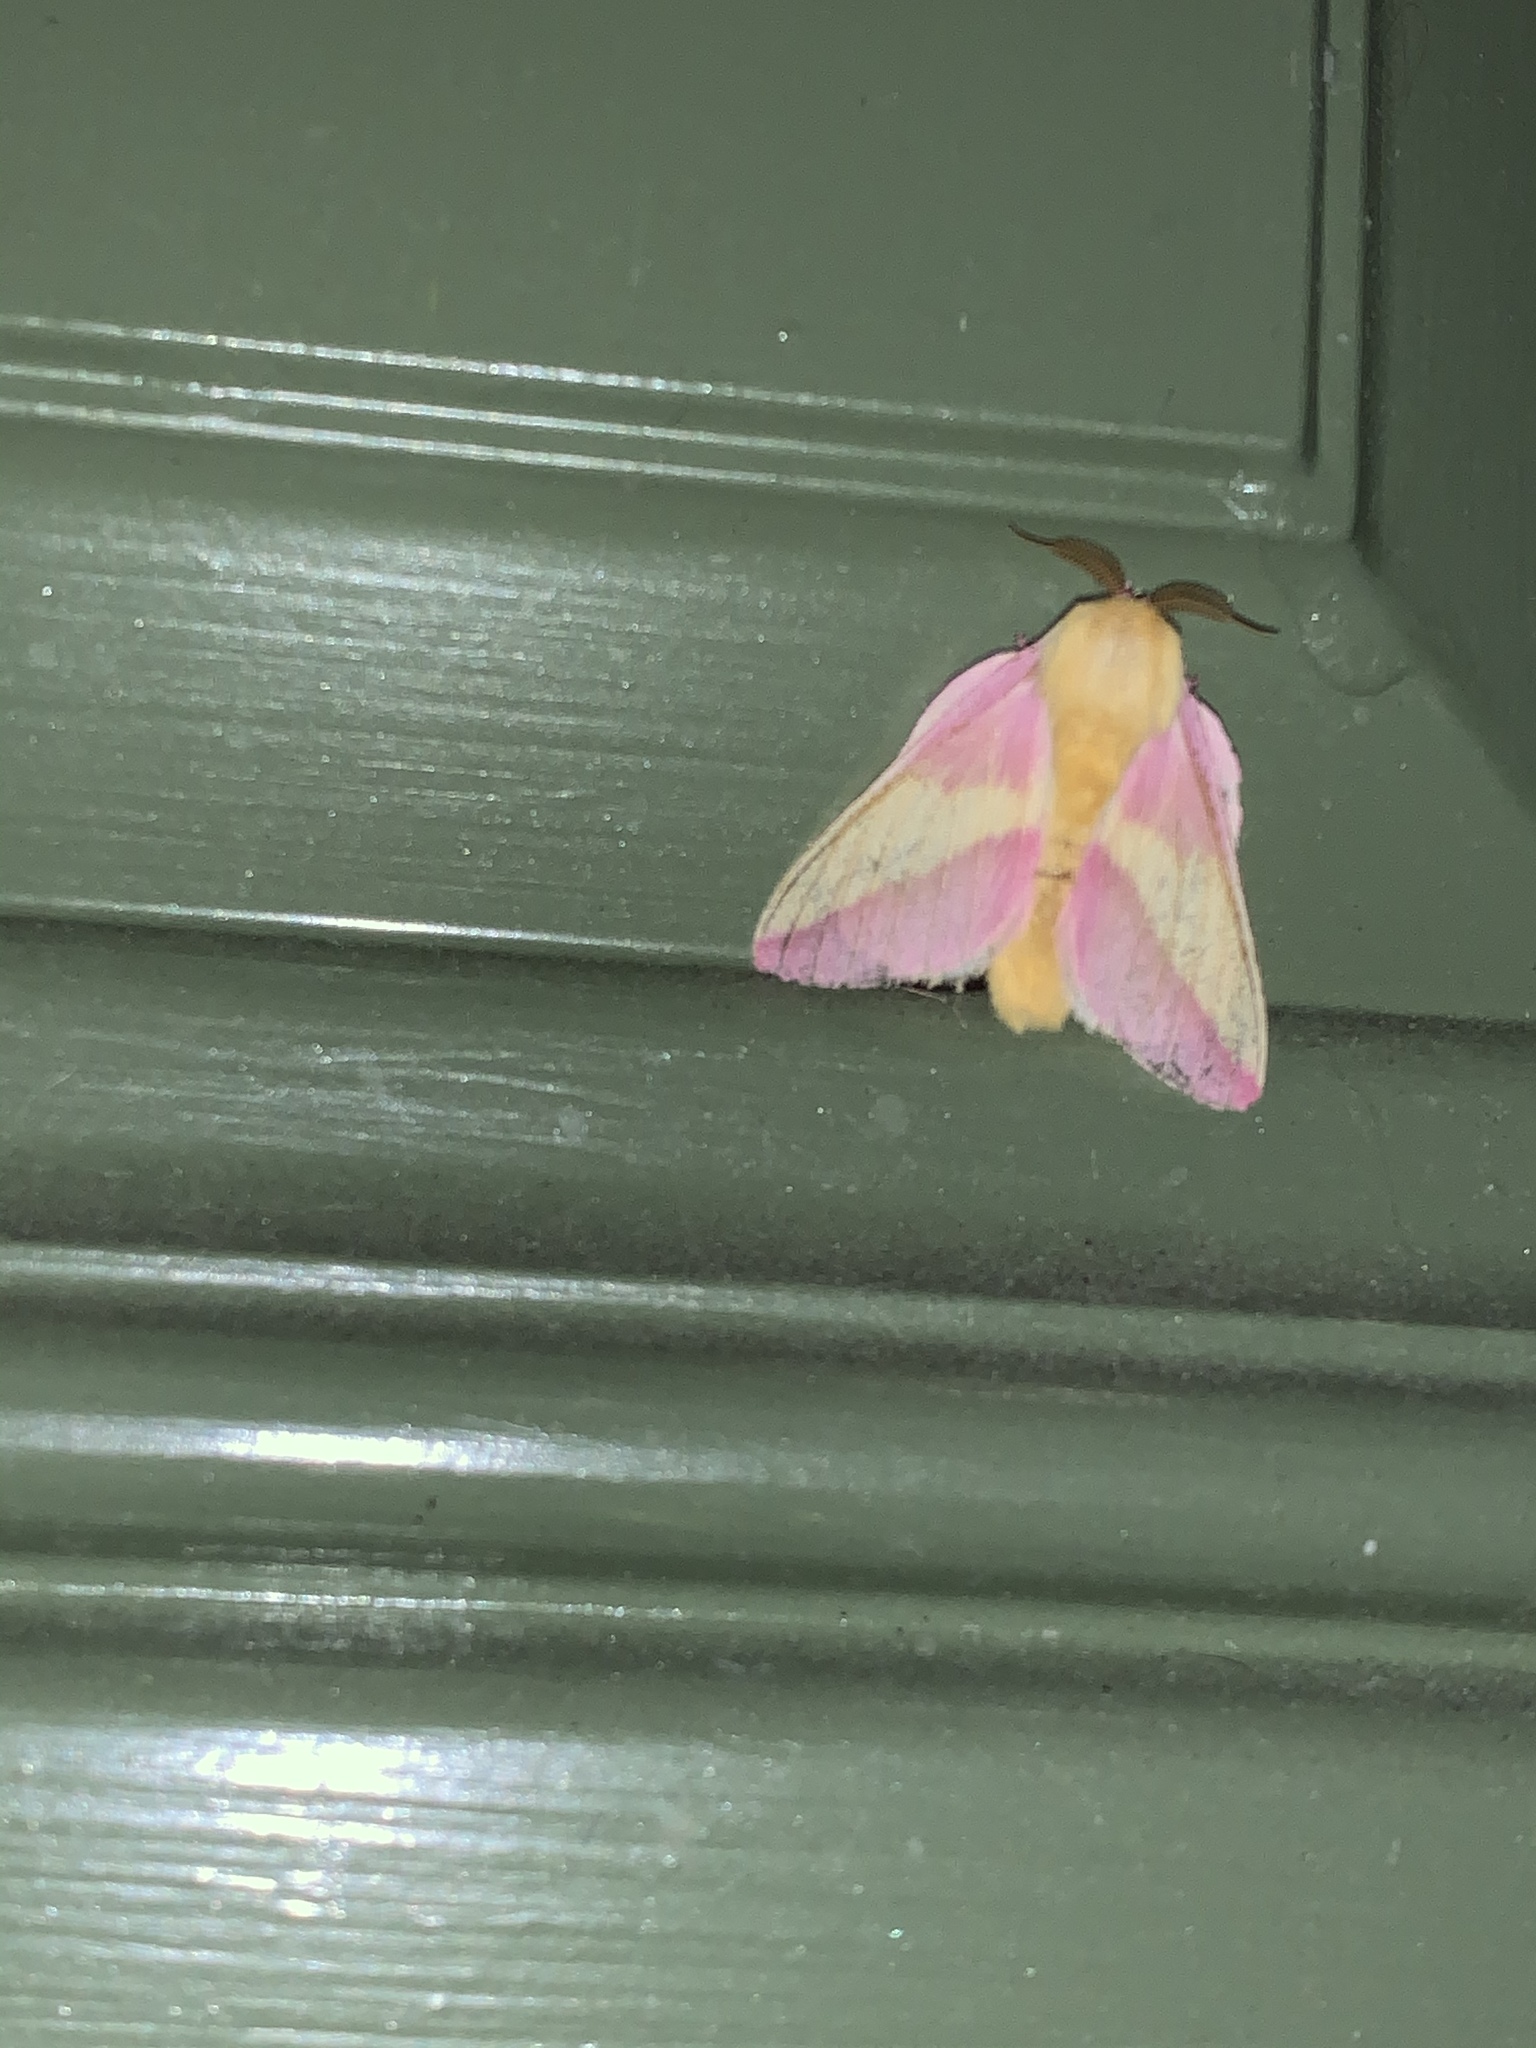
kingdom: Animalia
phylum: Arthropoda
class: Insecta
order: Lepidoptera
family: Saturniidae
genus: Dryocampa
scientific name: Dryocampa rubicunda
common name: Rosy maple moth
